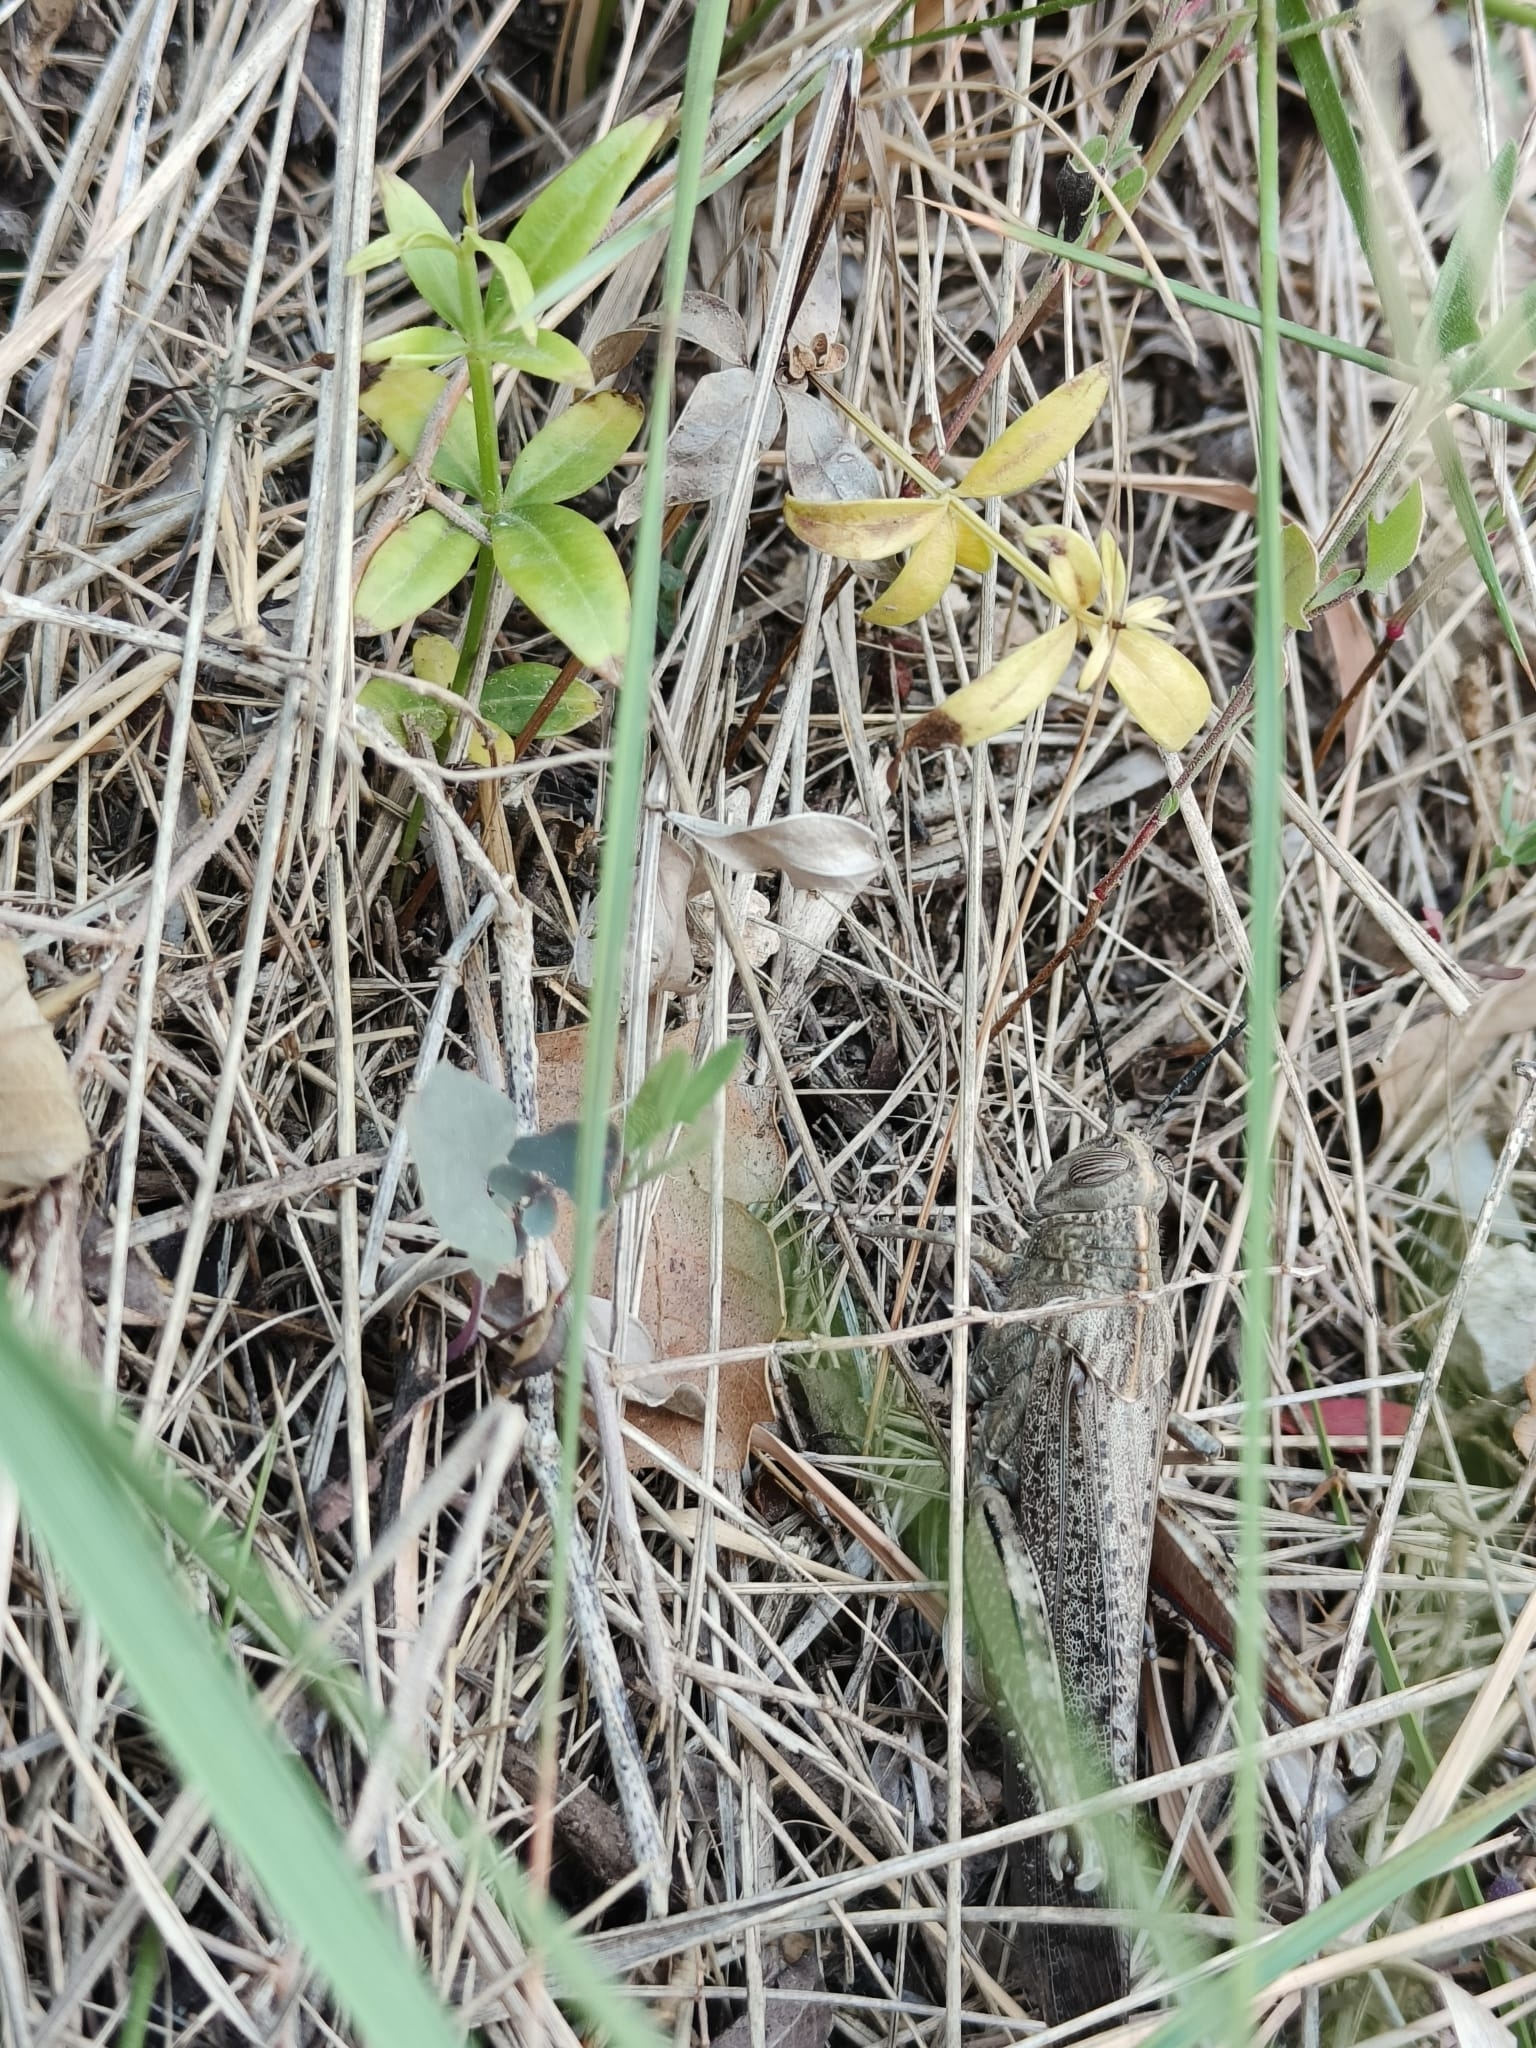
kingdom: Animalia
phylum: Arthropoda
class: Insecta
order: Orthoptera
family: Acrididae
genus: Anacridium
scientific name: Anacridium aegyptium
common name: Egyptian grasshopper
